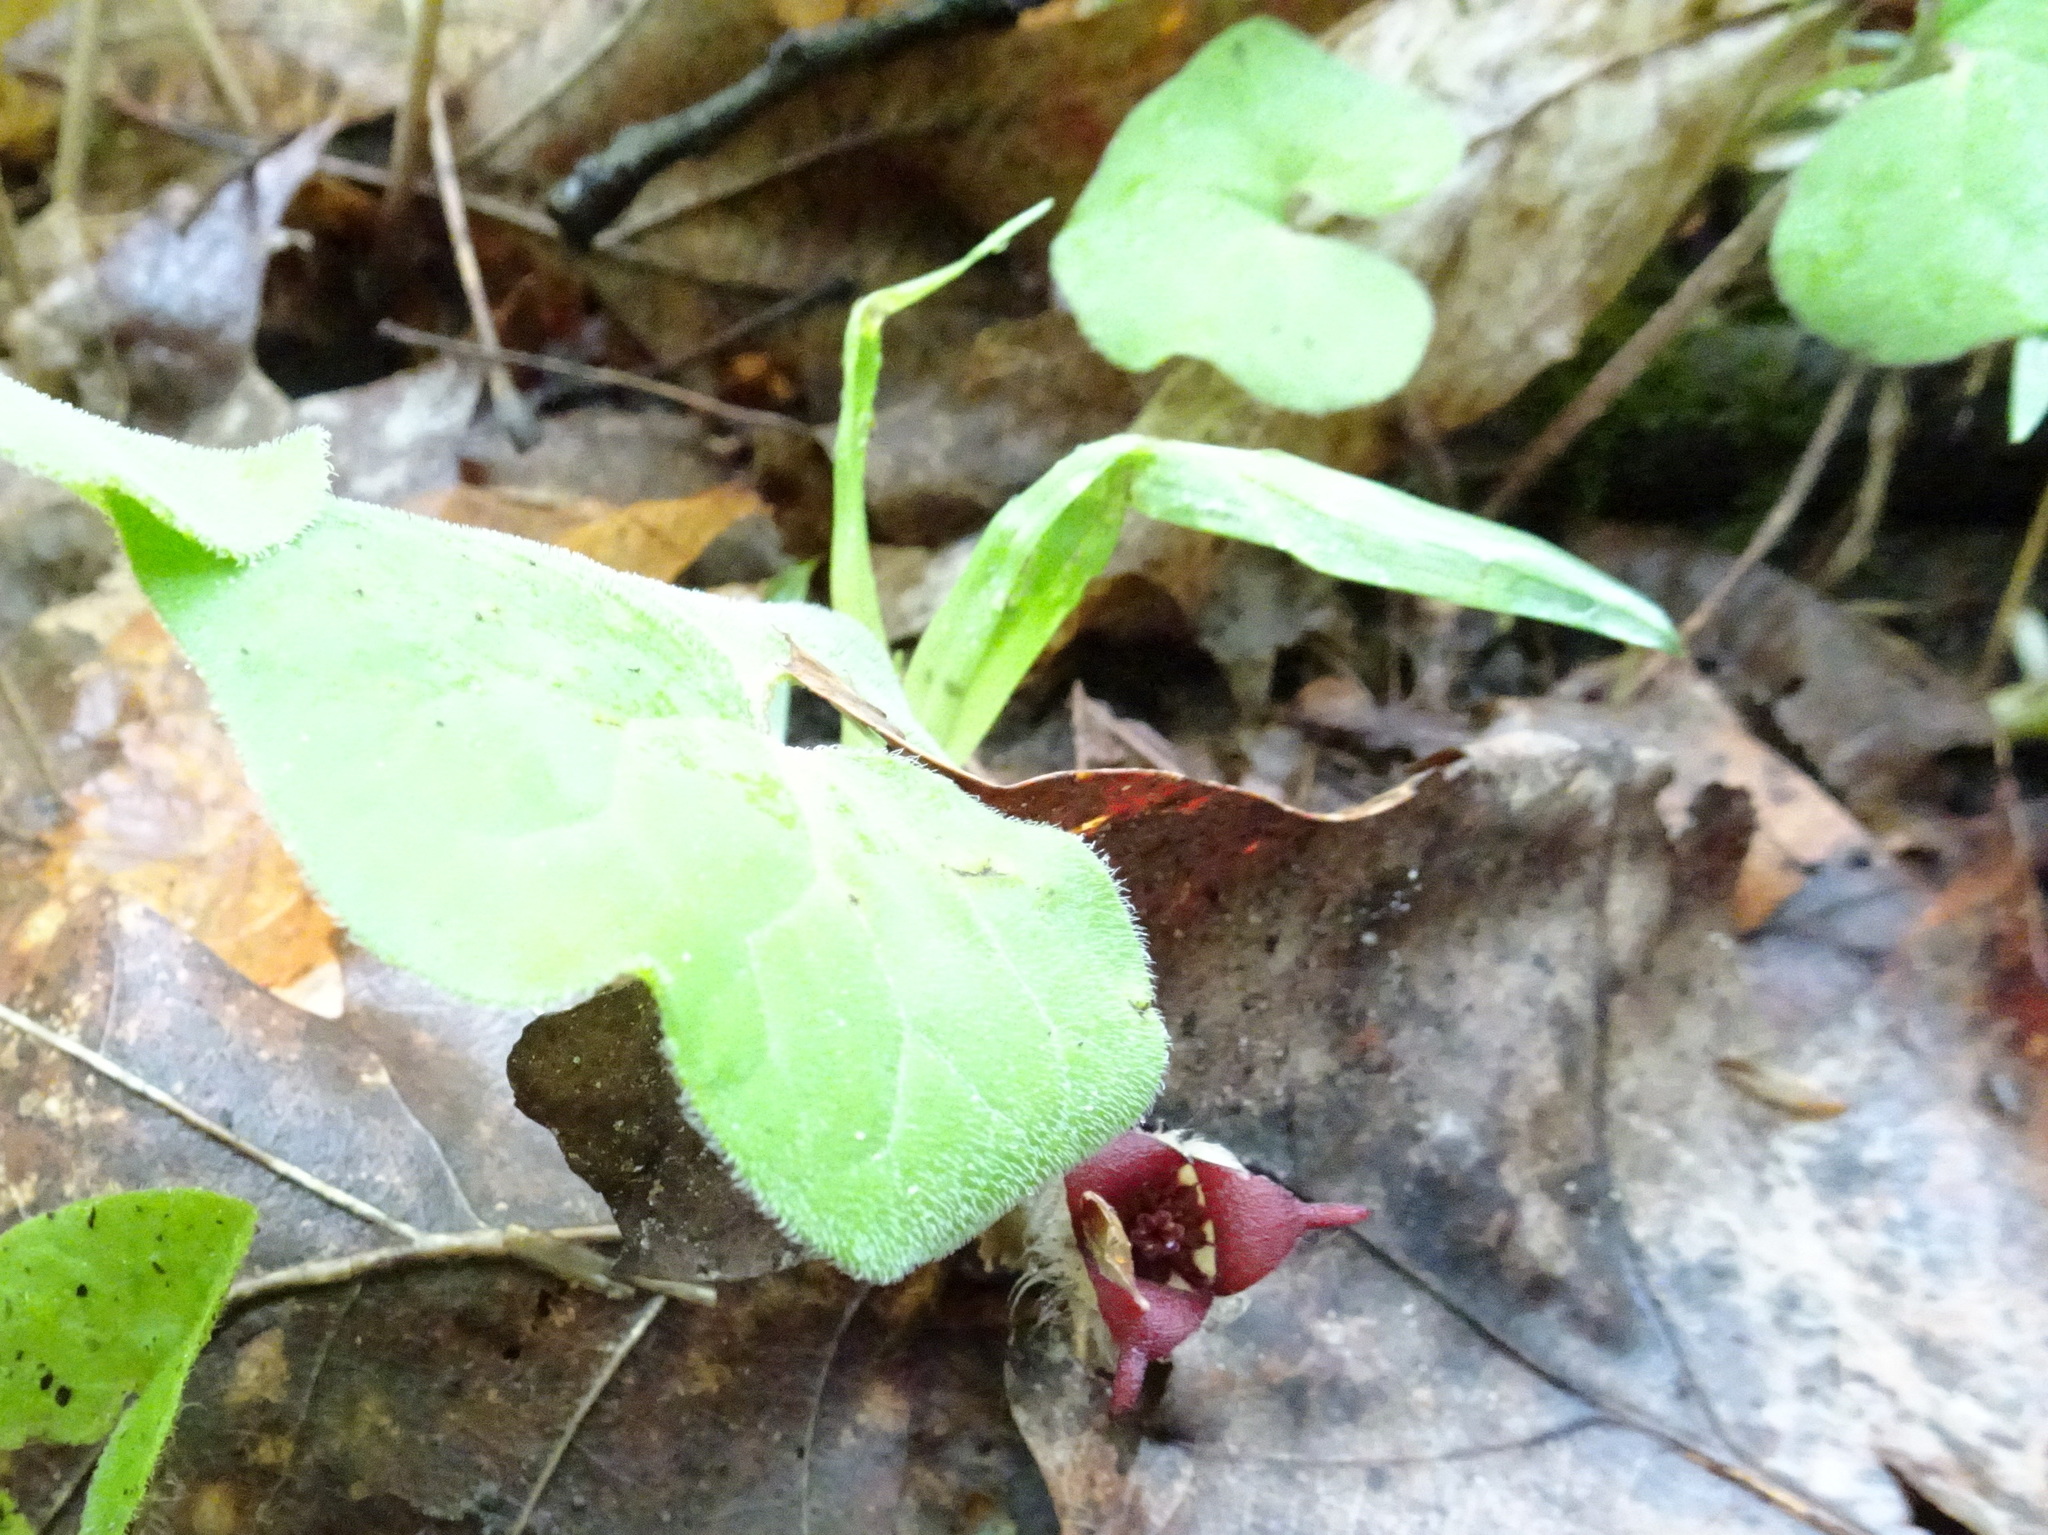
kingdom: Plantae
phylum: Tracheophyta
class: Magnoliopsida
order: Piperales
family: Aristolochiaceae
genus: Asarum
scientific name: Asarum canadense
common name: Wild ginger
